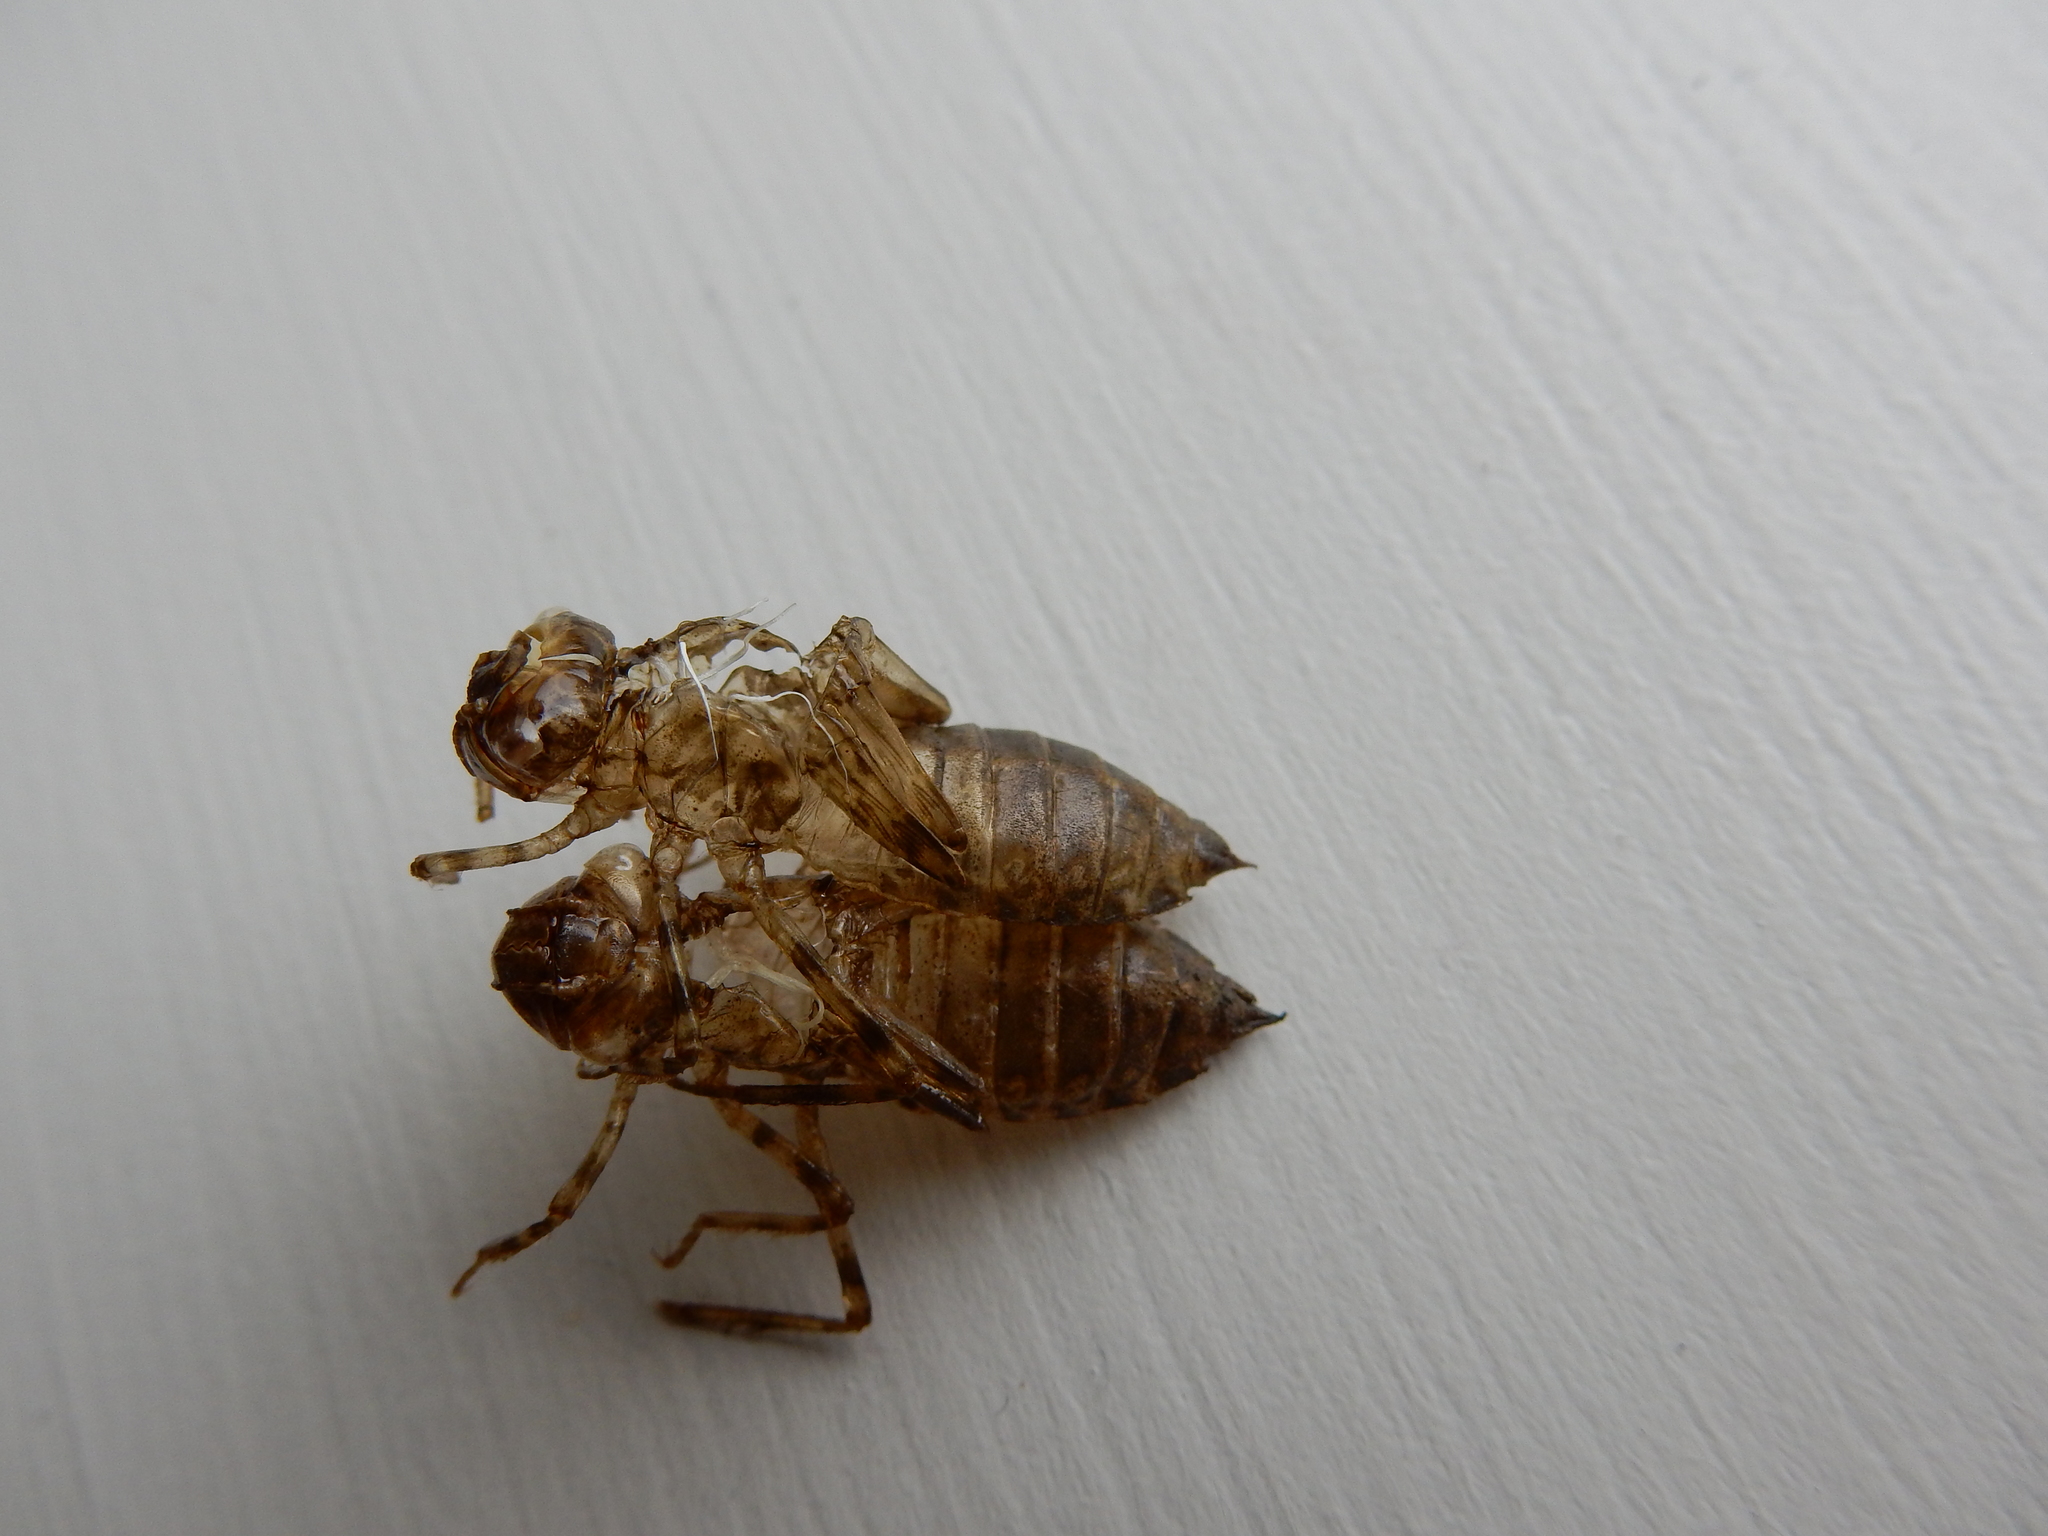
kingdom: Animalia
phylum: Arthropoda
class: Insecta
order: Odonata
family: Corduliidae
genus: Procordulia
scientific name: Procordulia grayi
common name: Yellow spotted dragonfly
